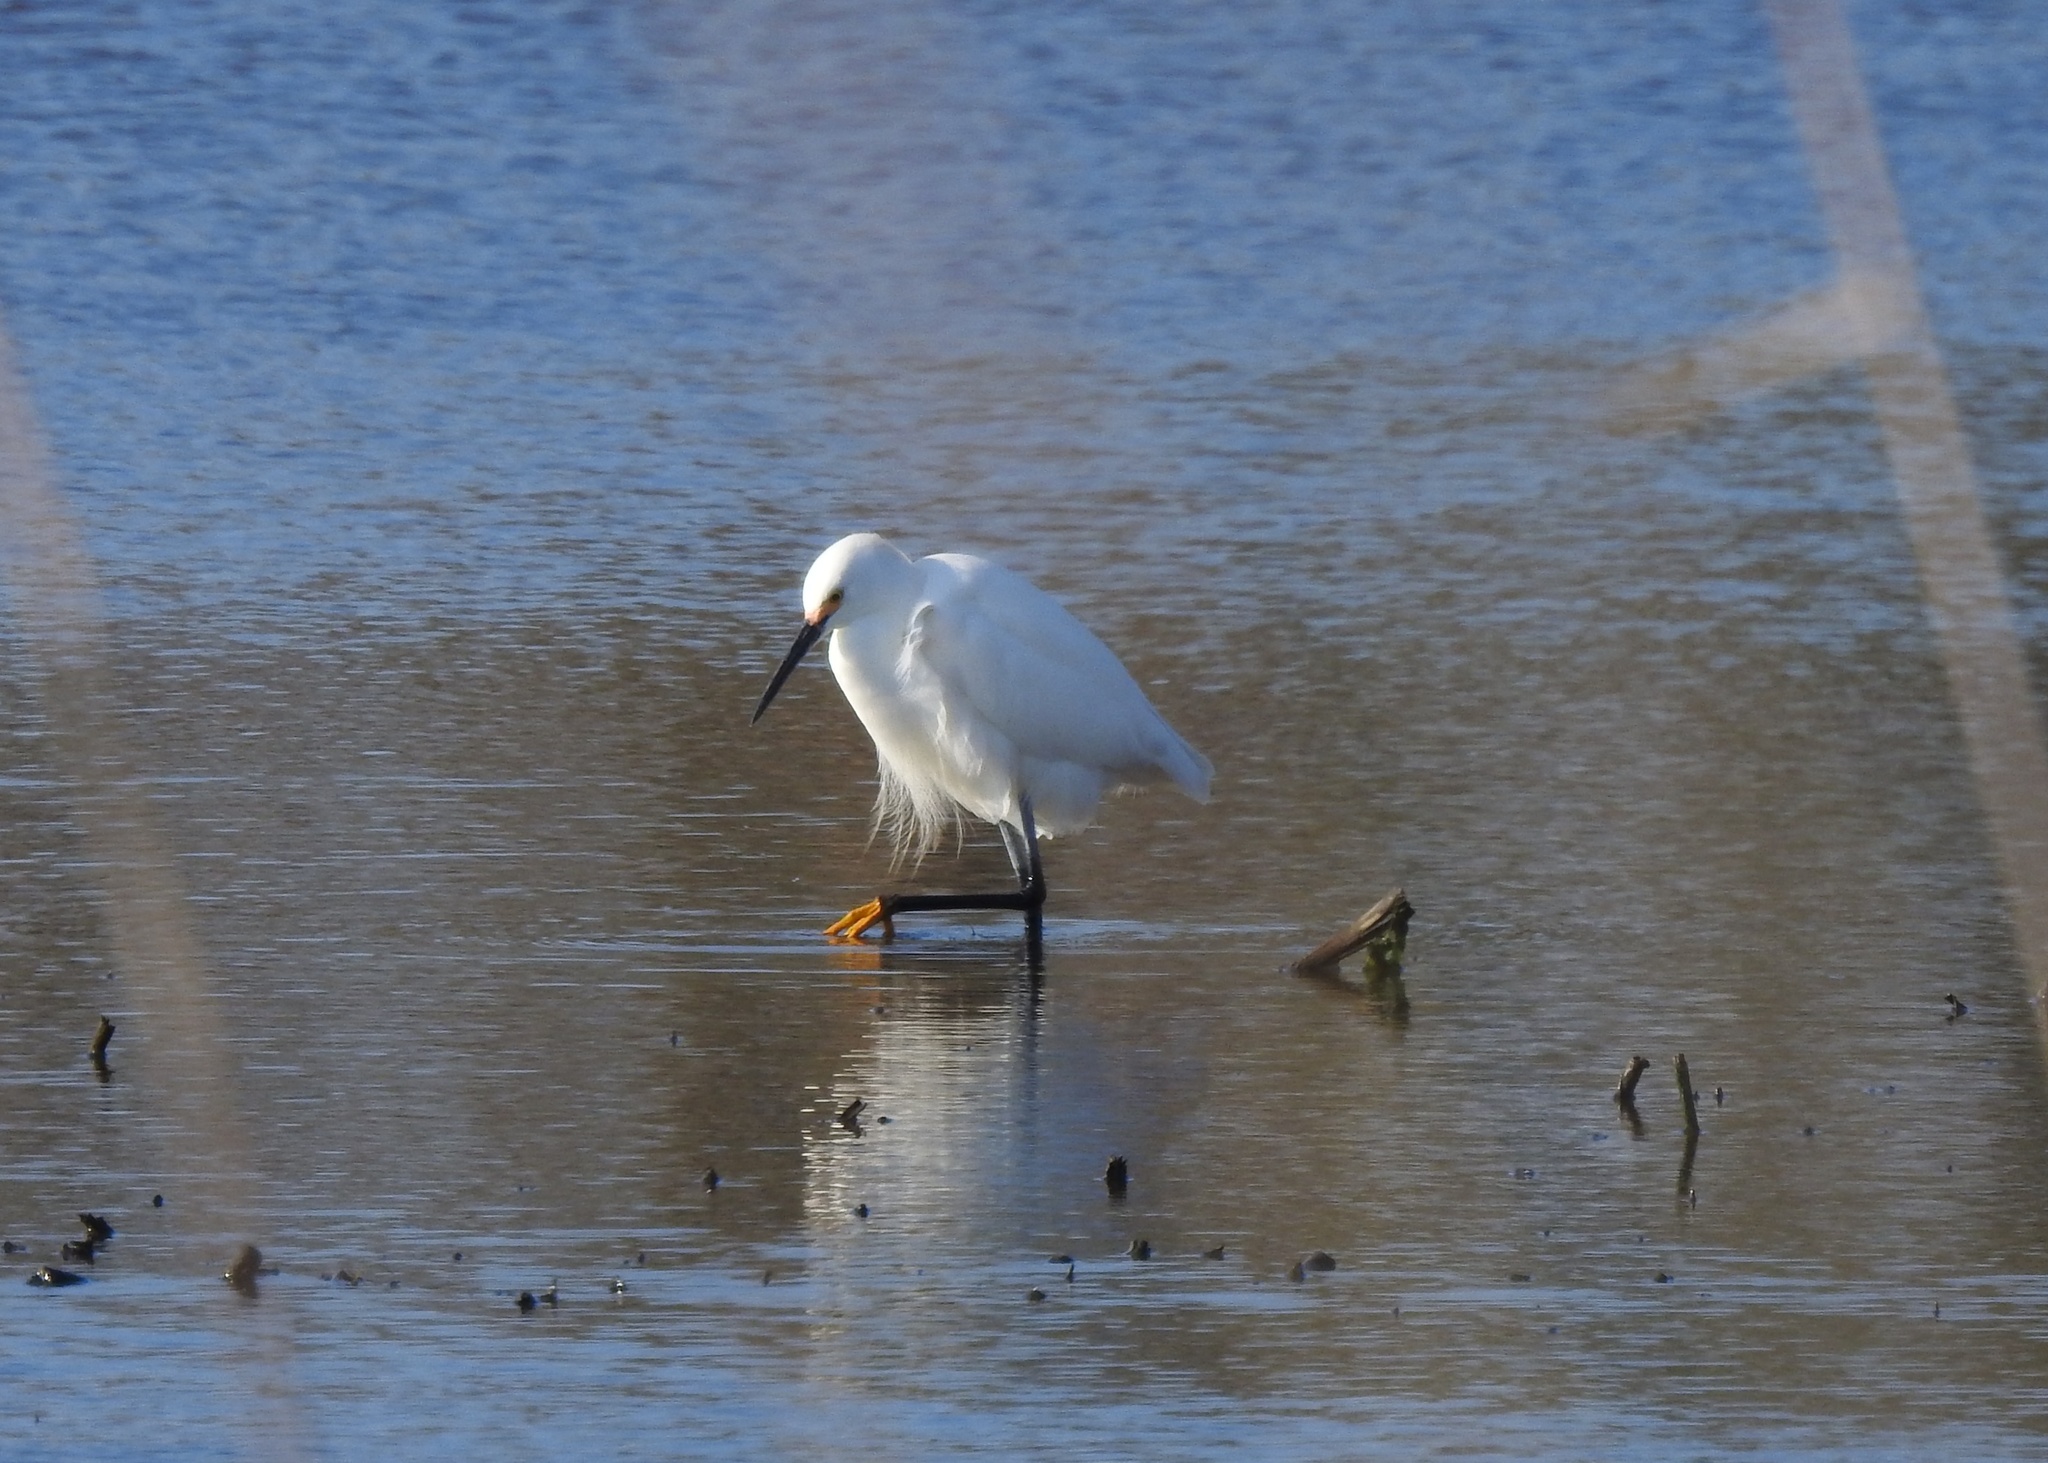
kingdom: Animalia
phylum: Chordata
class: Aves
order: Pelecaniformes
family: Ardeidae
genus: Egretta
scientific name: Egretta thula
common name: Snowy egret
